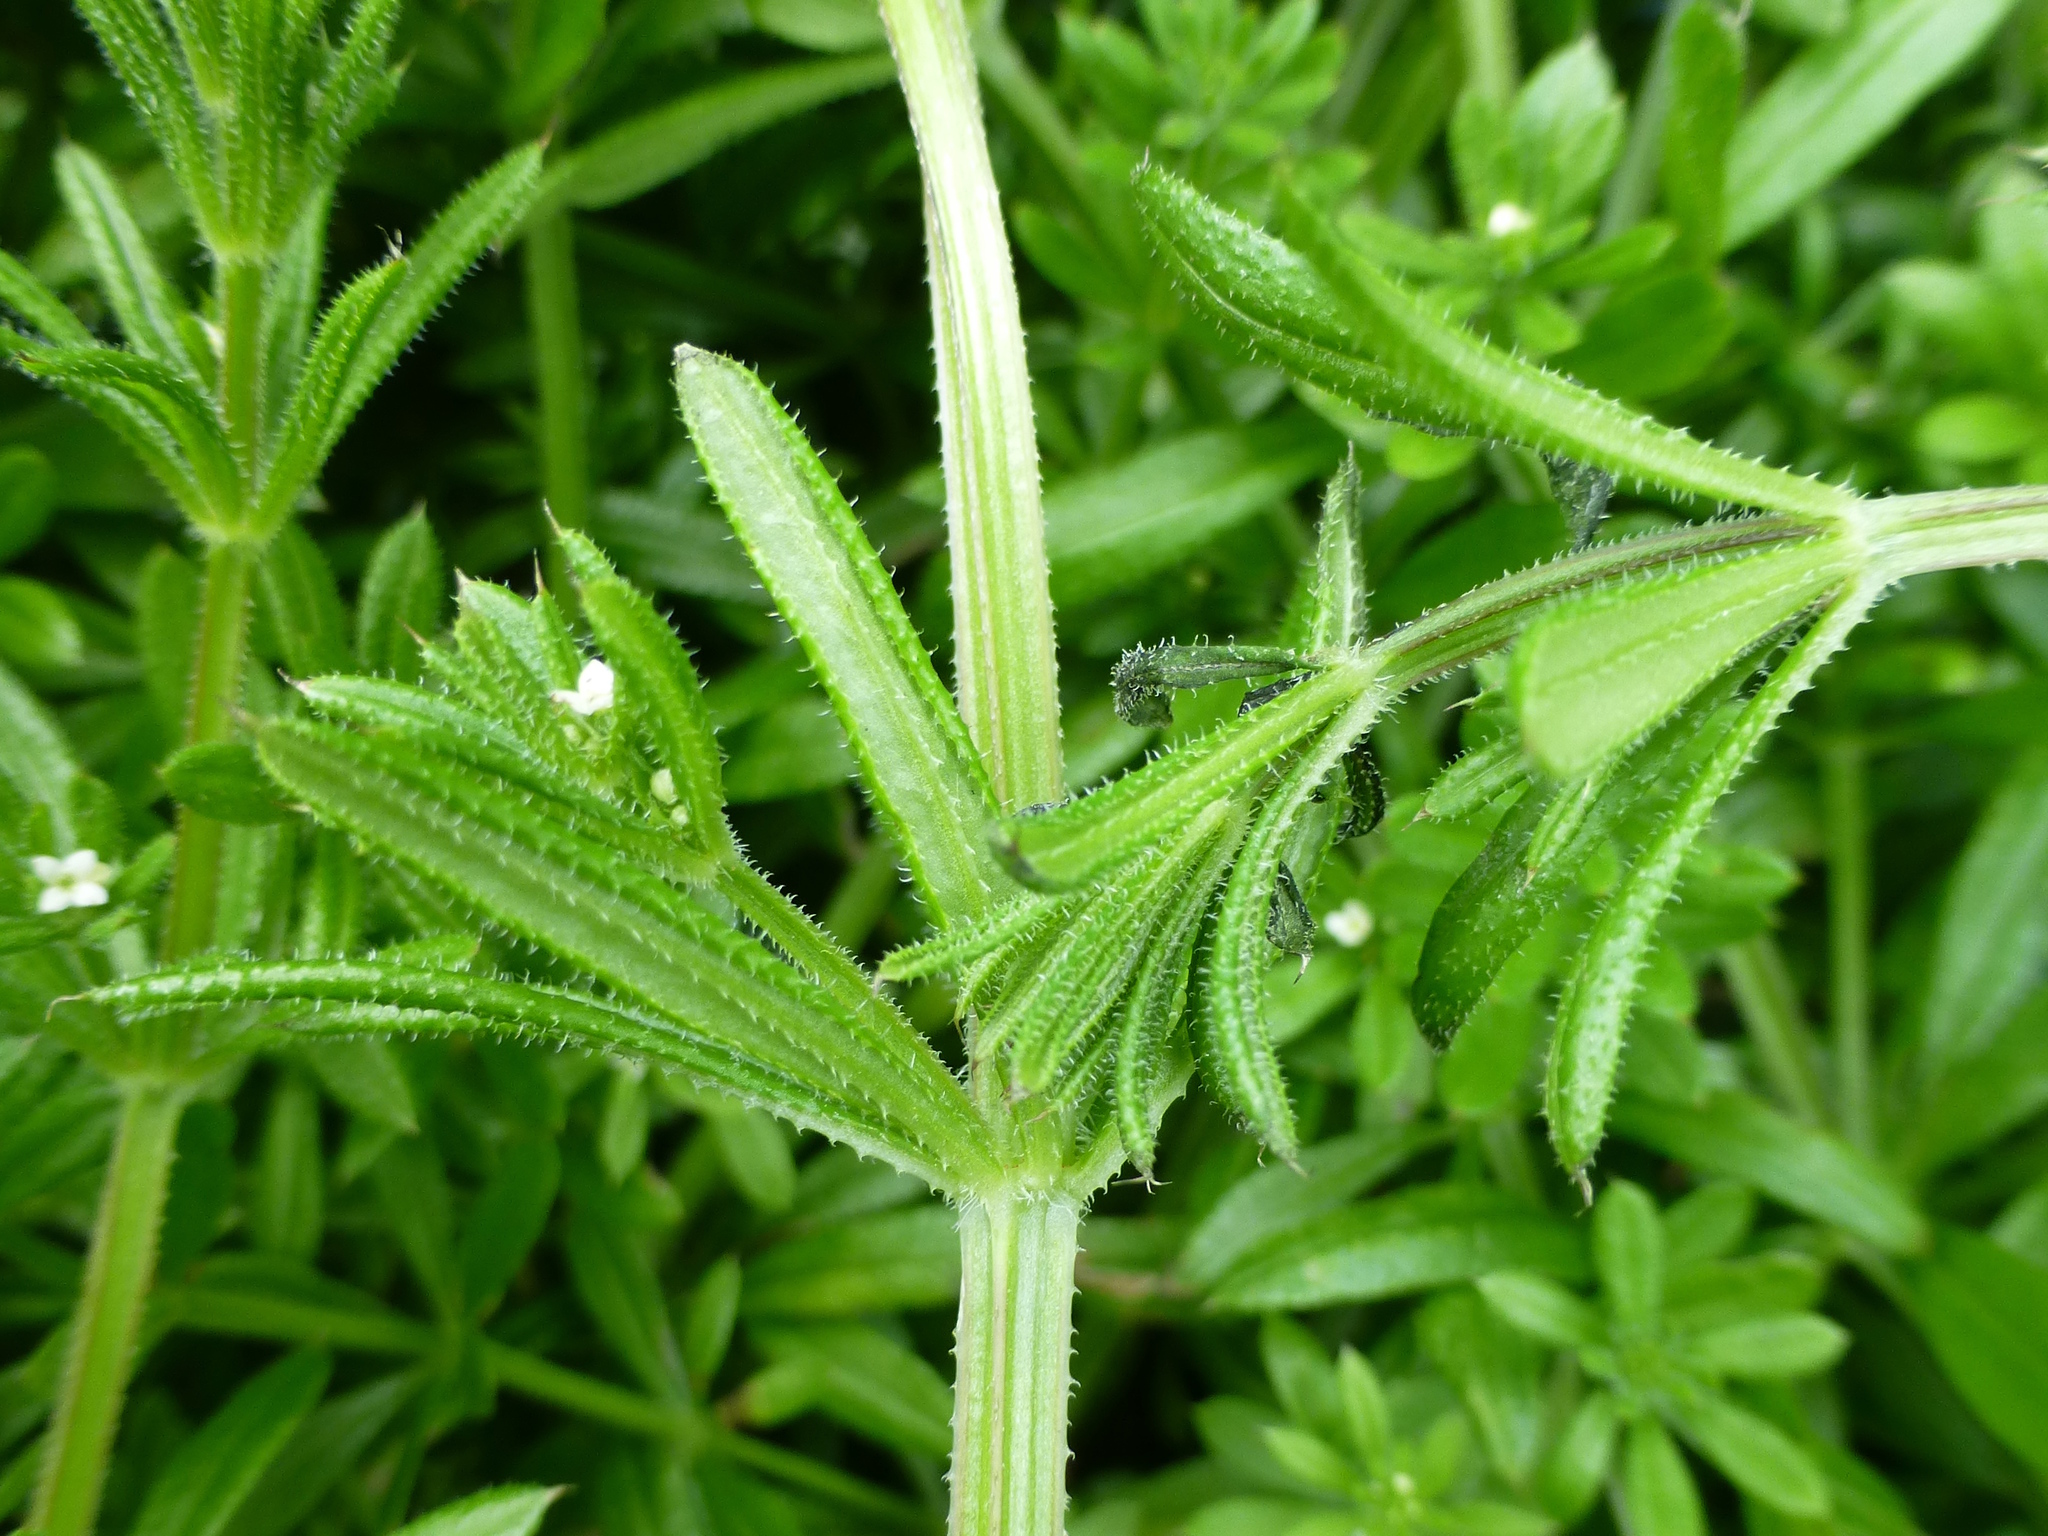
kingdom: Plantae
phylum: Tracheophyta
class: Magnoliopsida
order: Gentianales
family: Rubiaceae
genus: Galium
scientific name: Galium aparine
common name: Cleavers
